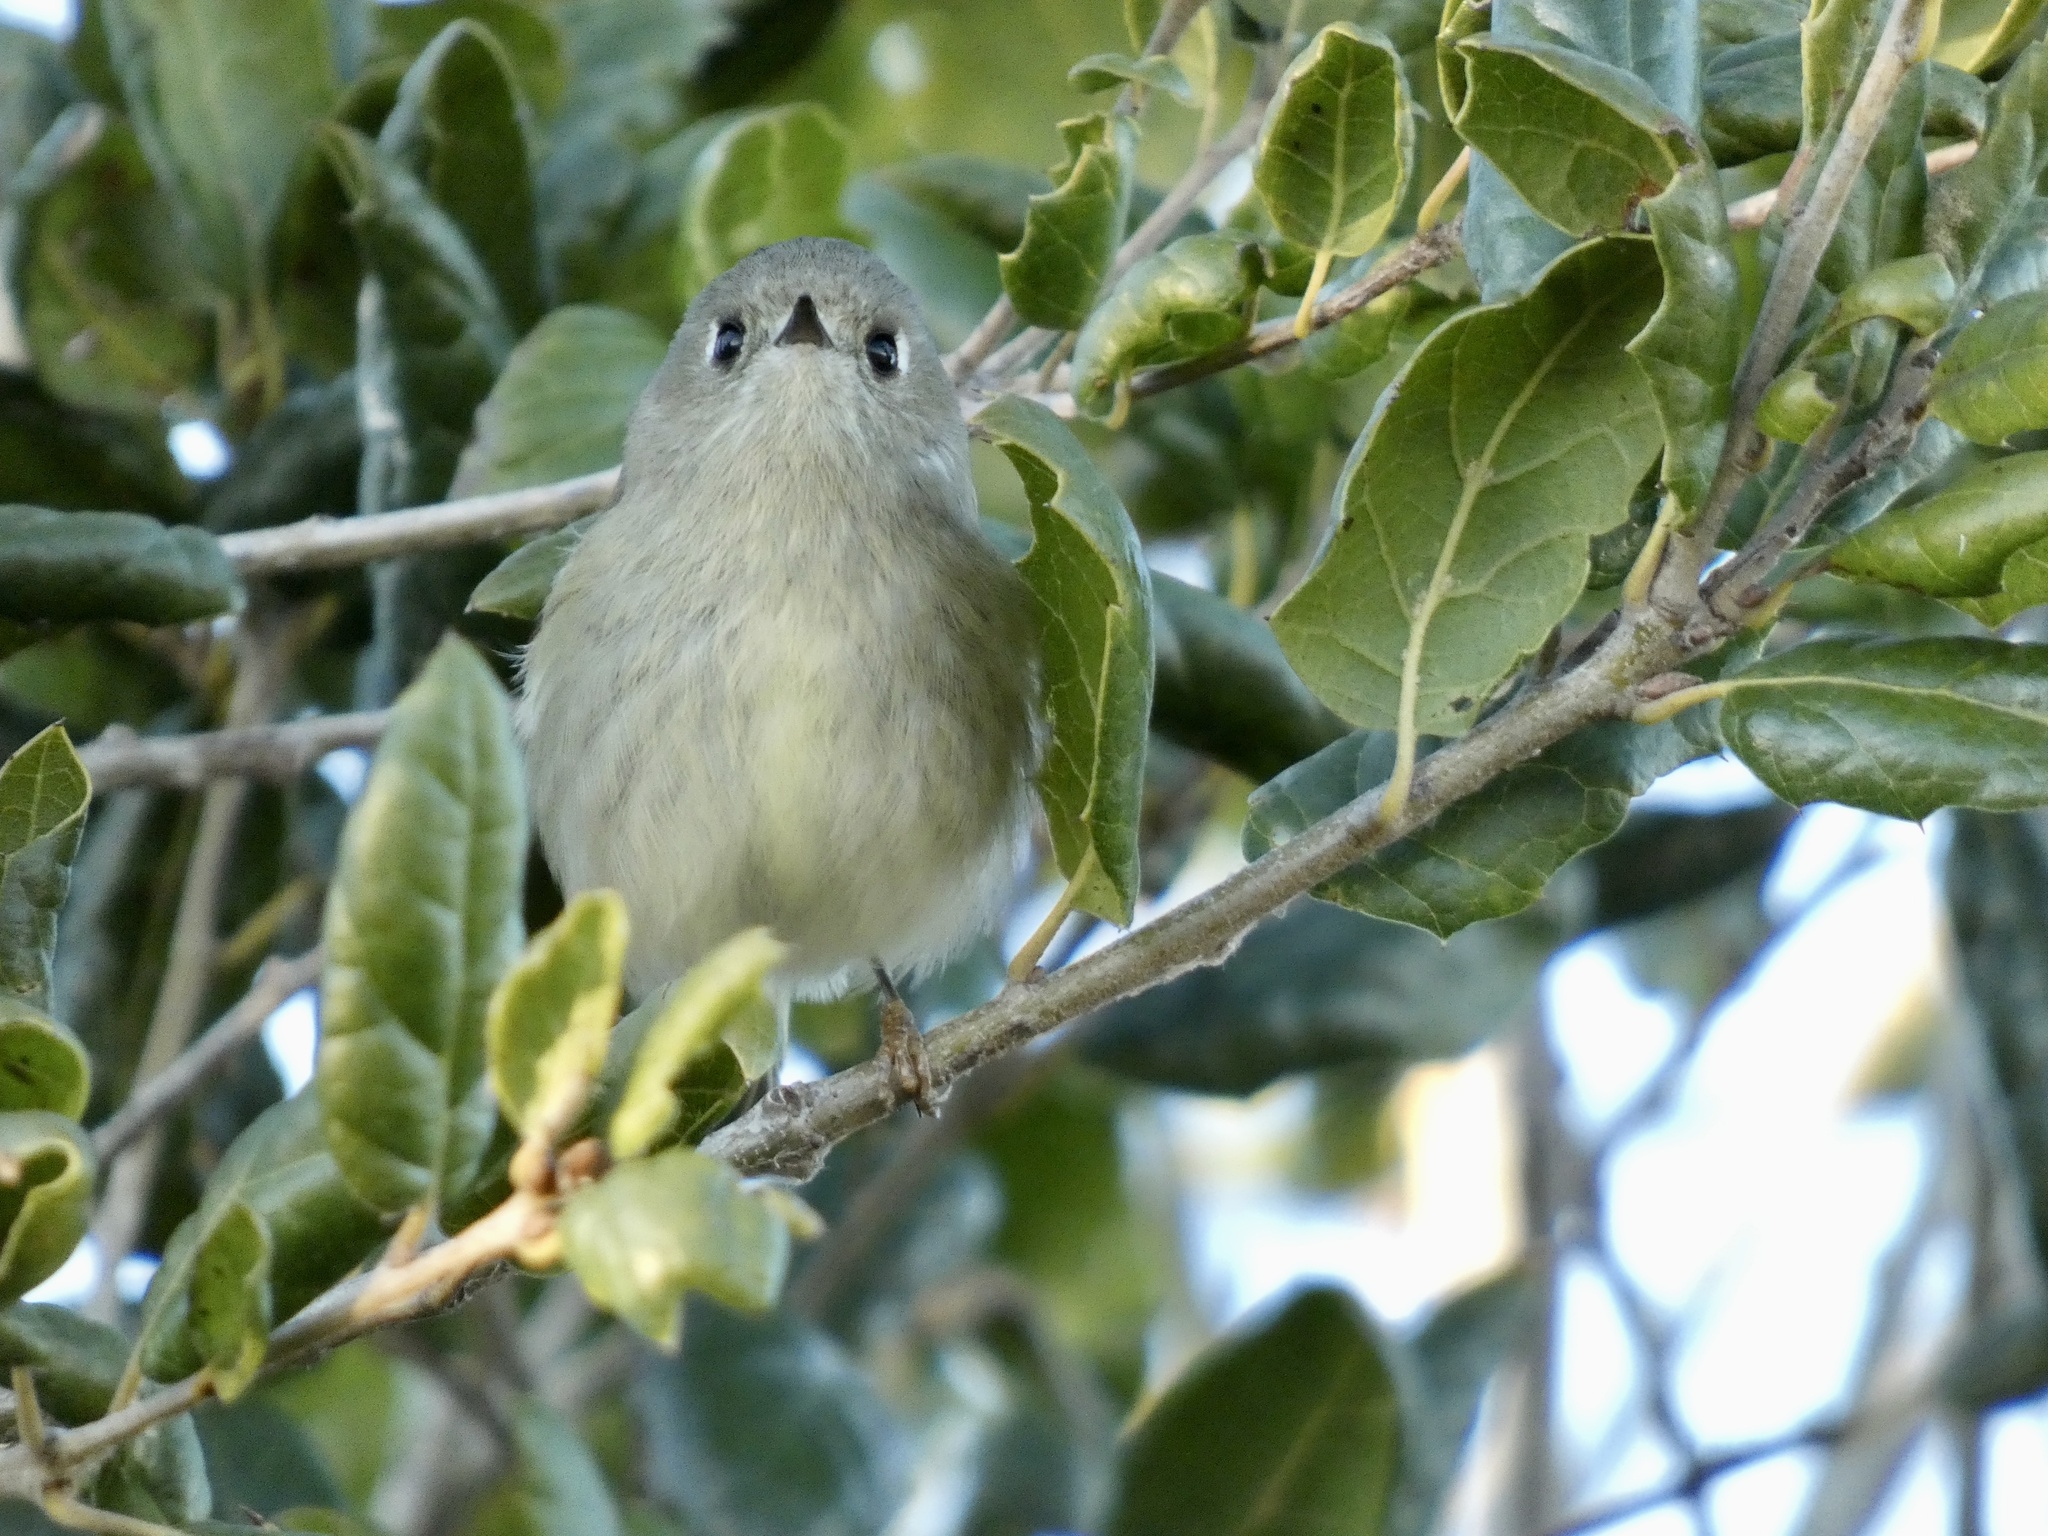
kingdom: Animalia
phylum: Chordata
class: Aves
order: Passeriformes
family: Regulidae
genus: Regulus
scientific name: Regulus calendula
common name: Ruby-crowned kinglet
